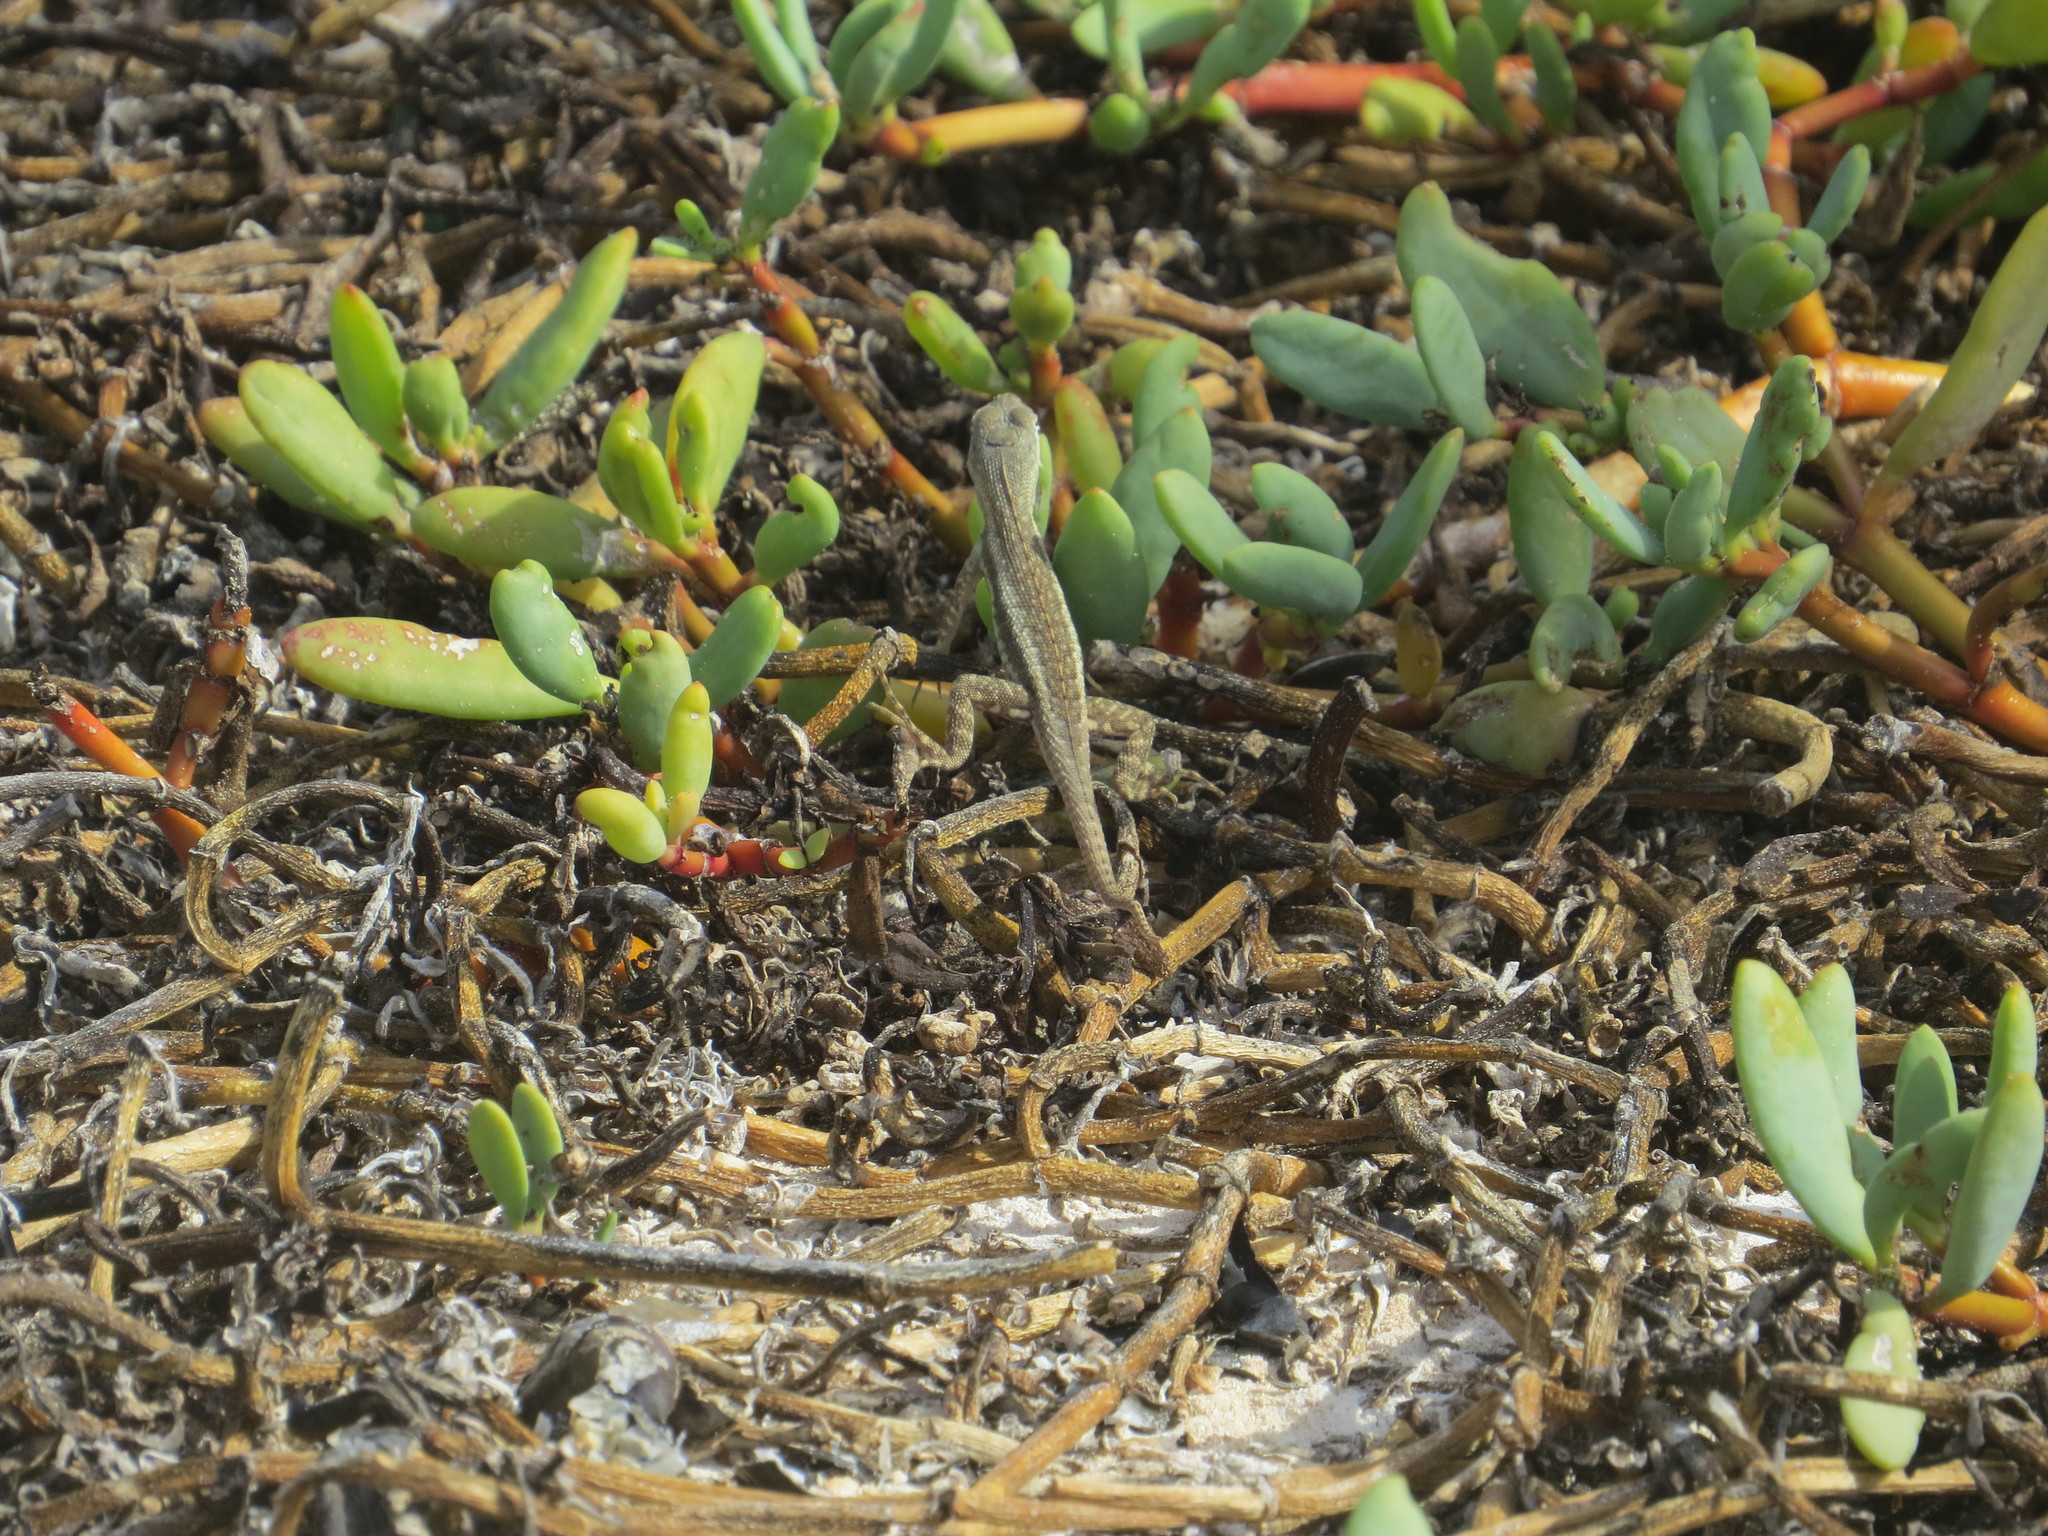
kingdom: Animalia
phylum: Chordata
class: Squamata
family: Tropiduridae
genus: Microlophus
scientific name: Microlophus bivittatus
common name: San cristobal lava lizard
